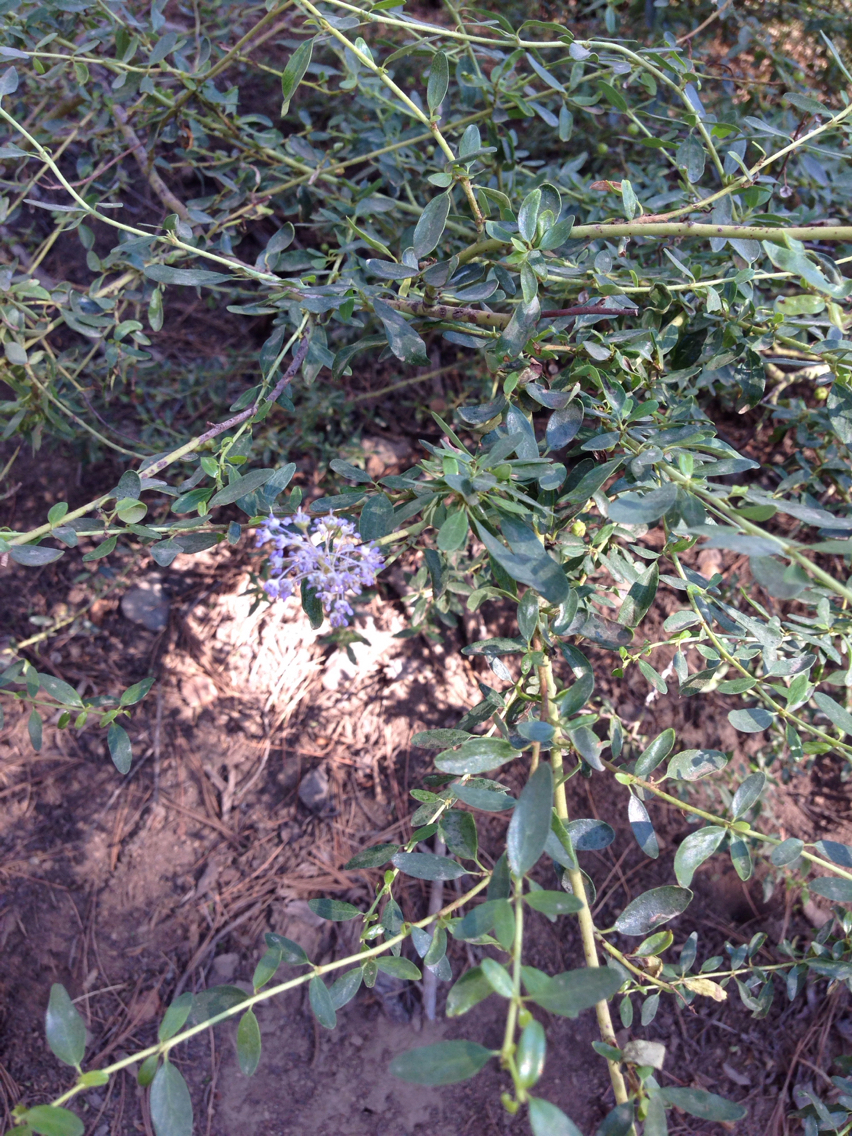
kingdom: Plantae
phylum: Tracheophyta
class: Magnoliopsida
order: Rosales
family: Rhamnaceae
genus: Ceanothus
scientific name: Ceanothus parvifolius
